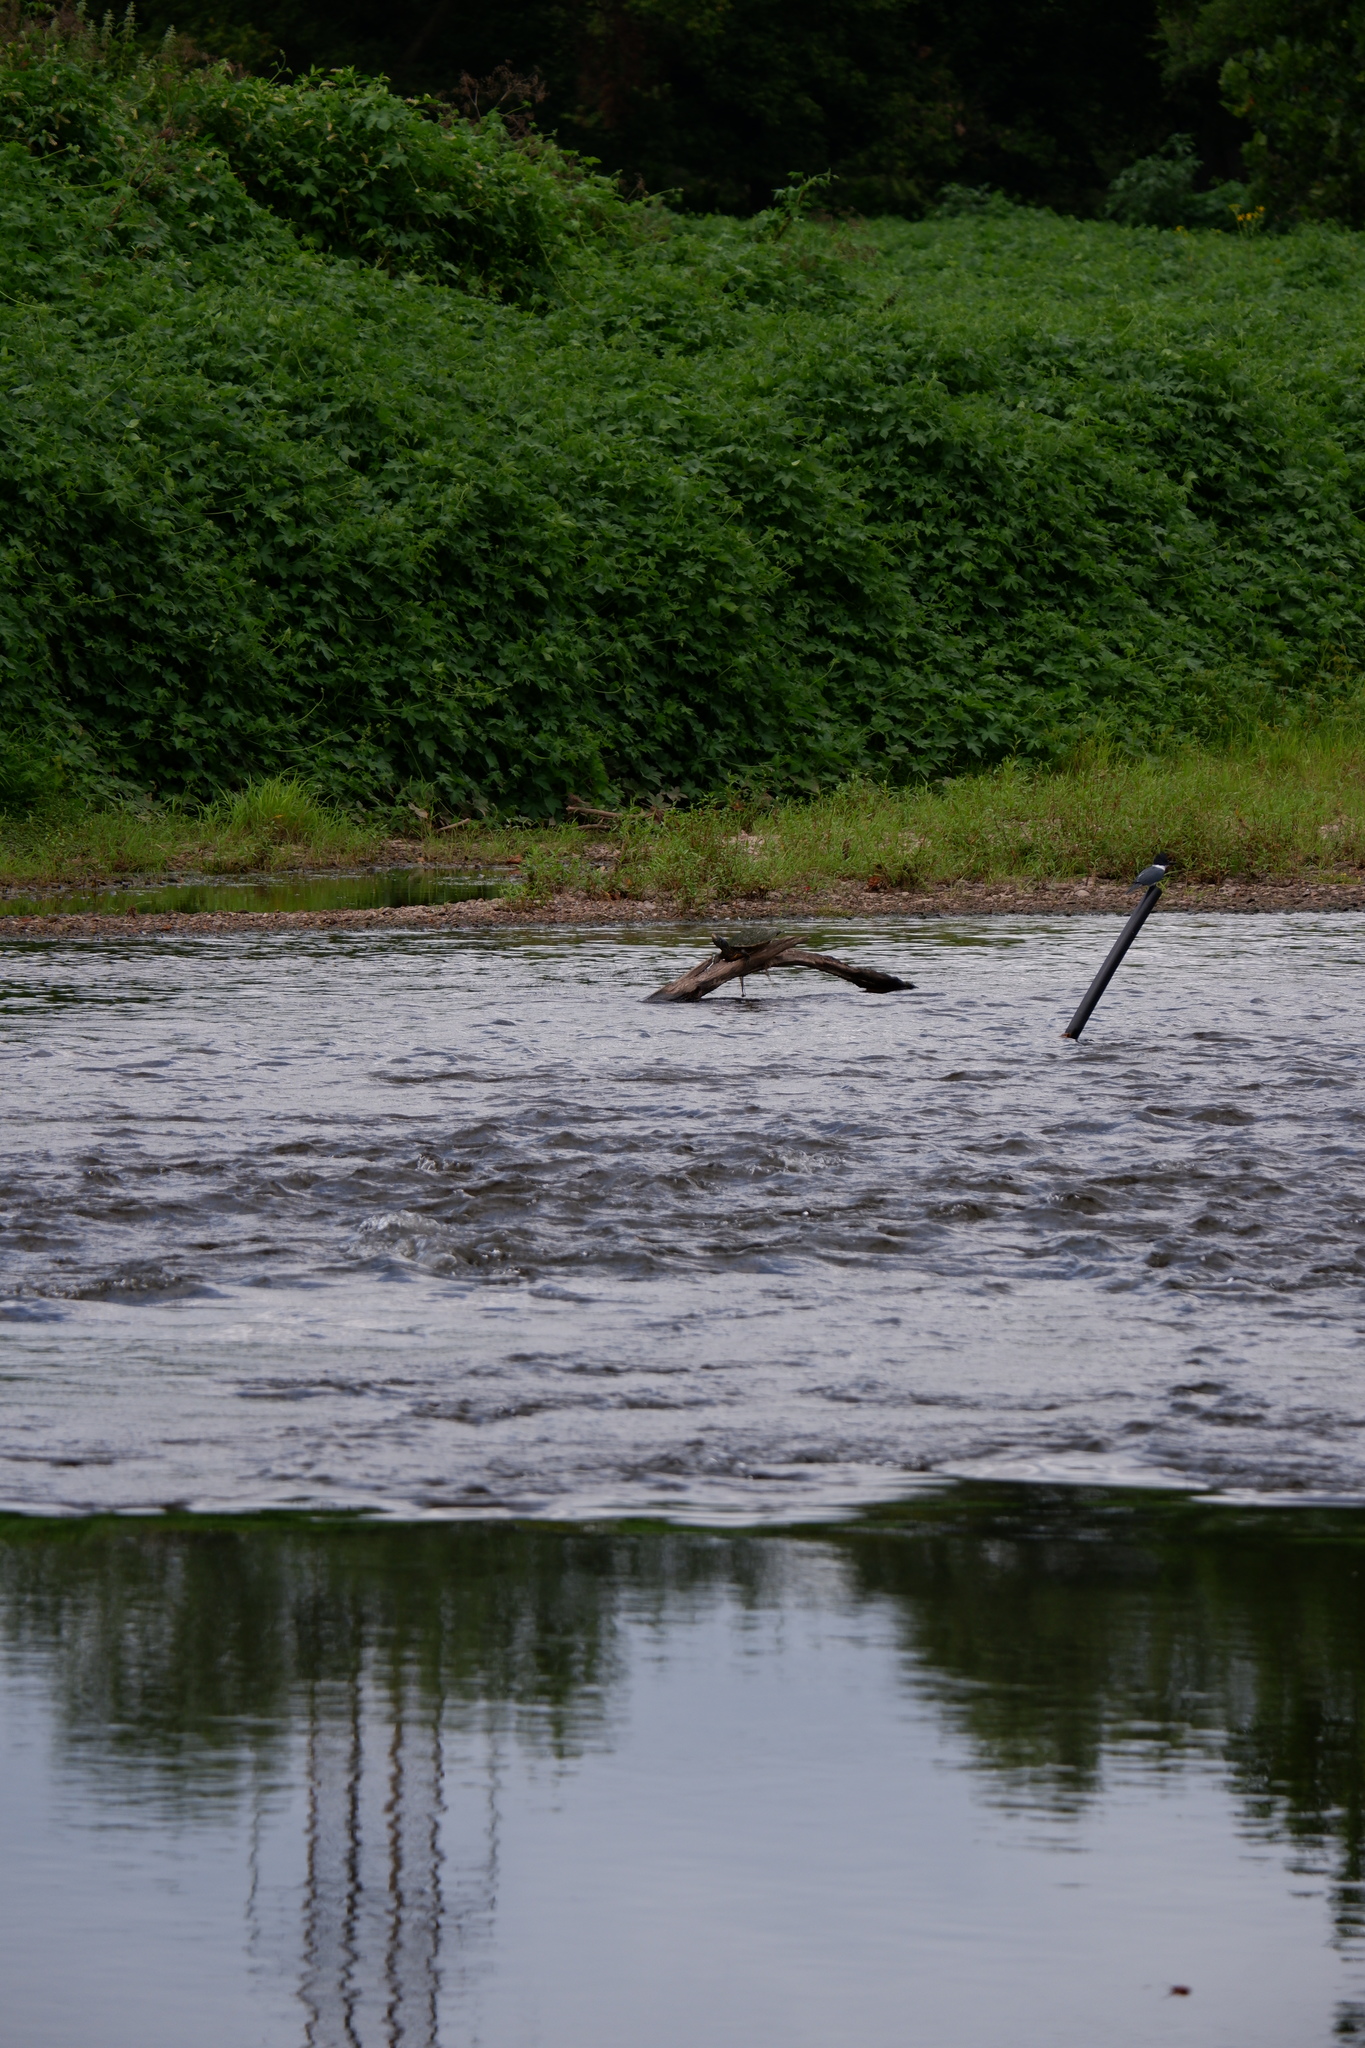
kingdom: Animalia
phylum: Chordata
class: Testudines
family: Emydidae
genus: Graptemys
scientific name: Graptemys geographica
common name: Common map turtle
